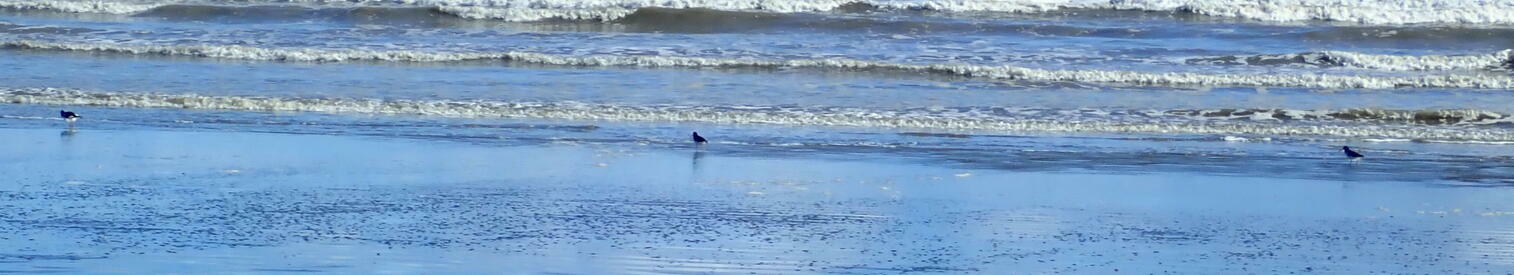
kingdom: Animalia
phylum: Chordata
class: Aves
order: Charadriiformes
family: Haematopodidae
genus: Haematopus
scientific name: Haematopus finschi
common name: South island oystercatcher
